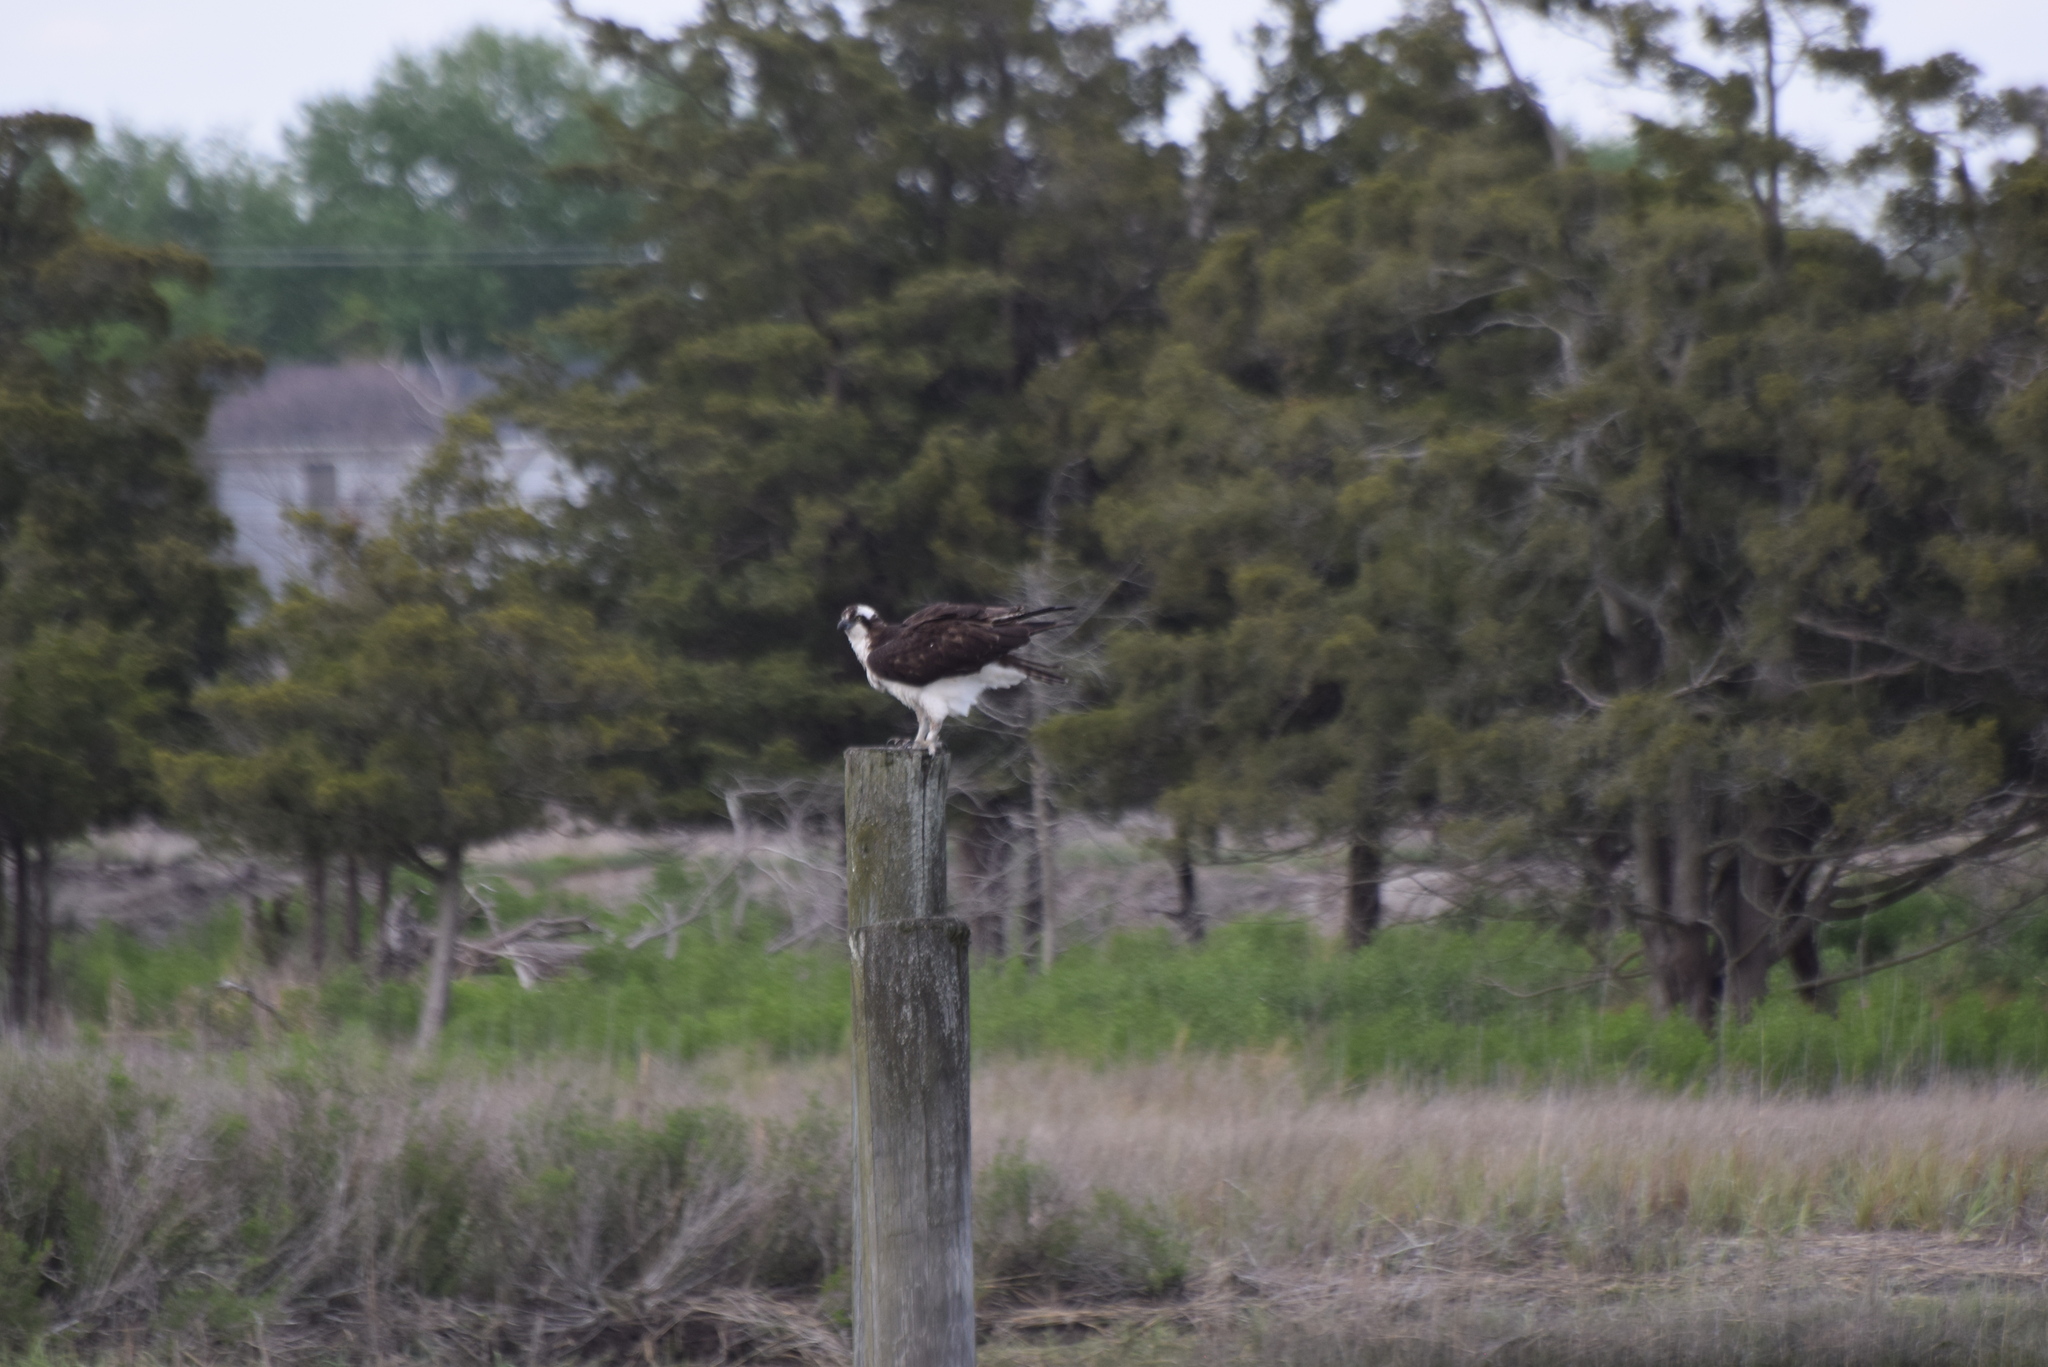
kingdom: Animalia
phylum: Chordata
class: Aves
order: Accipitriformes
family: Pandionidae
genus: Pandion
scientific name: Pandion haliaetus
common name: Osprey
